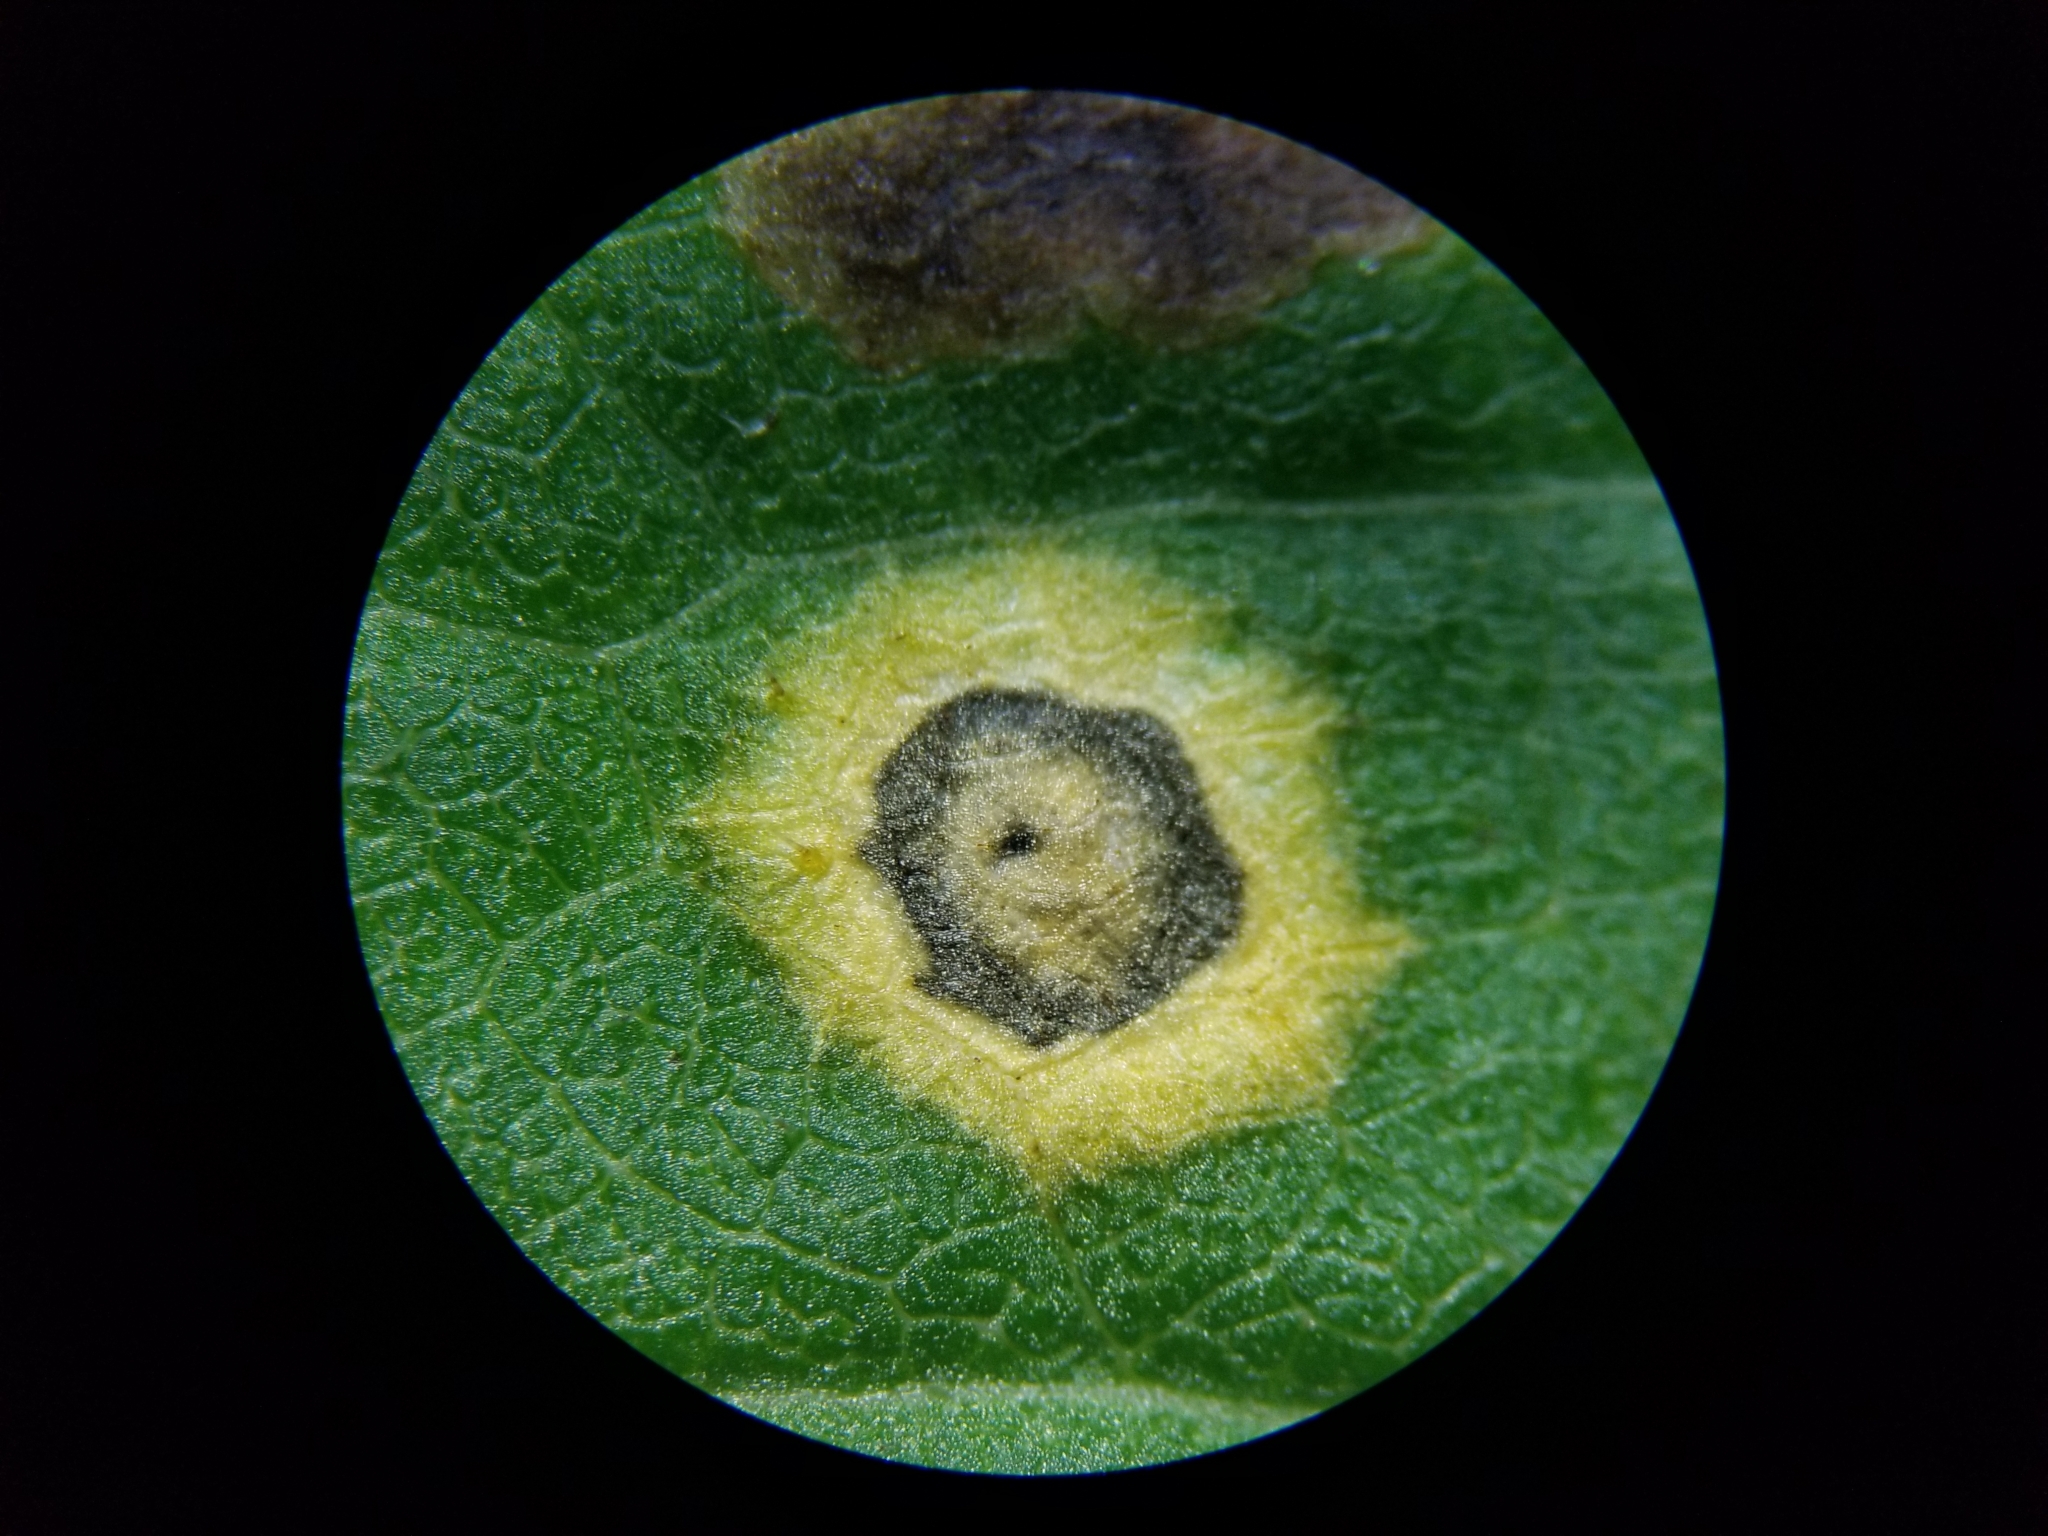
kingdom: Animalia
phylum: Arthropoda
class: Insecta
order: Diptera
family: Cecidomyiidae
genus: Asteromyia
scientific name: Asteromyia carbonifera
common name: Carbonifera goldenrod gall midge
